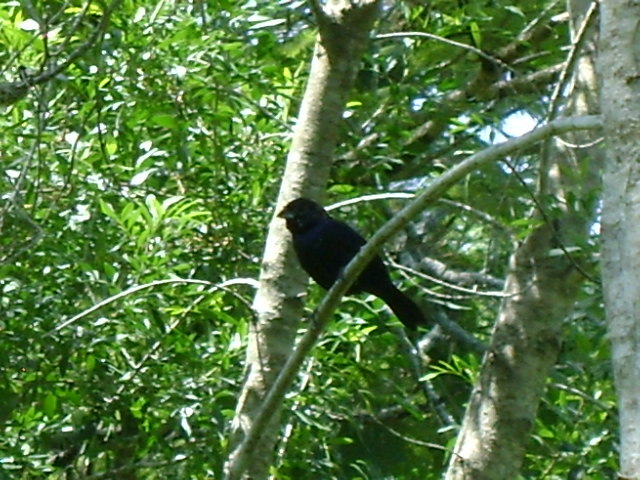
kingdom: Animalia
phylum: Chordata
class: Aves
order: Passeriformes
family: Thraupidae
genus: Volatinia
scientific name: Volatinia jacarina
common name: Blue-black grassquit
